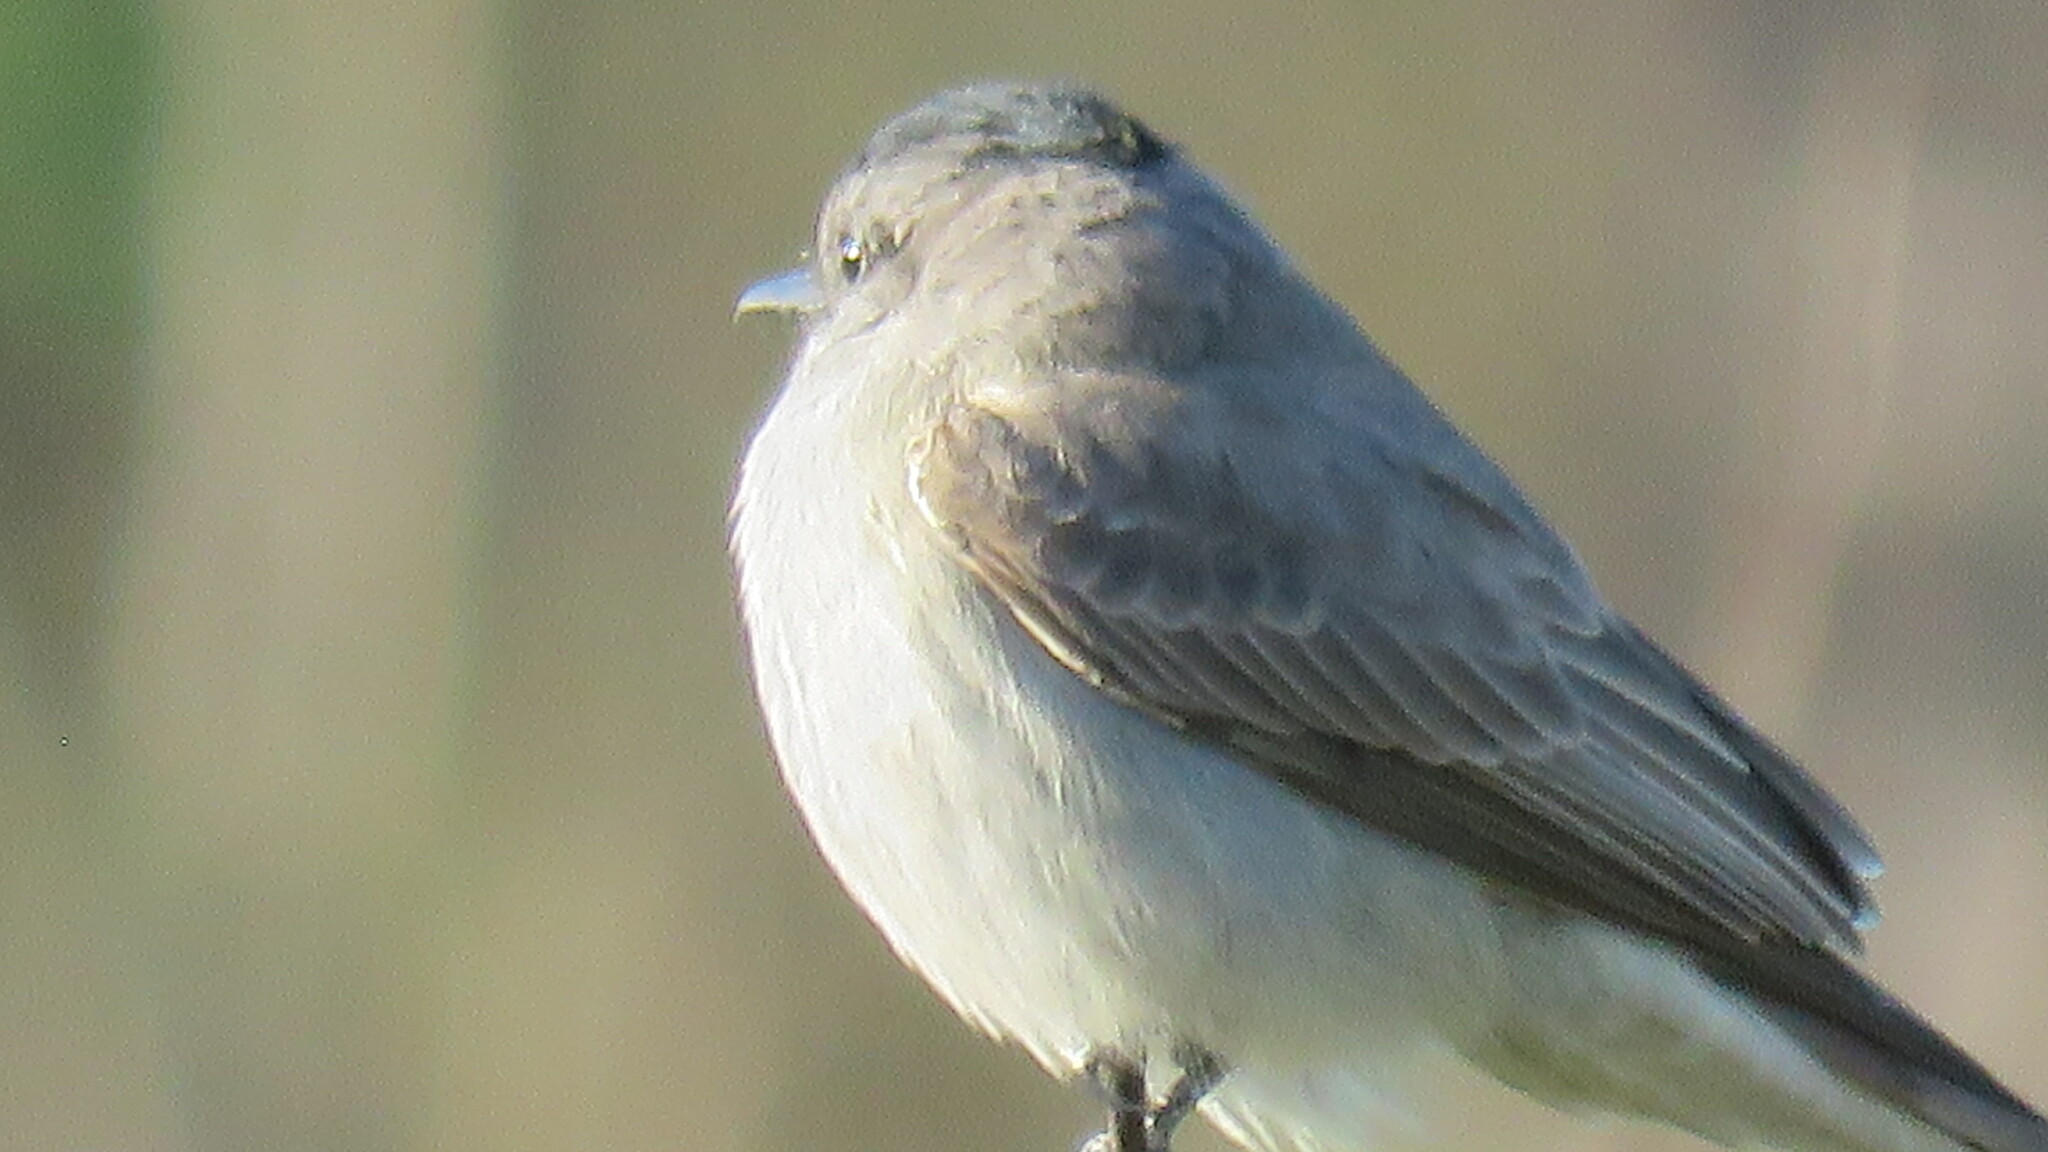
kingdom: Animalia
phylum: Chordata
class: Aves
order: Passeriformes
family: Tyrannidae
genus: Empidonomus
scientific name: Empidonomus aurantioatrocristatus
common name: Crowned slaty flycatcher
